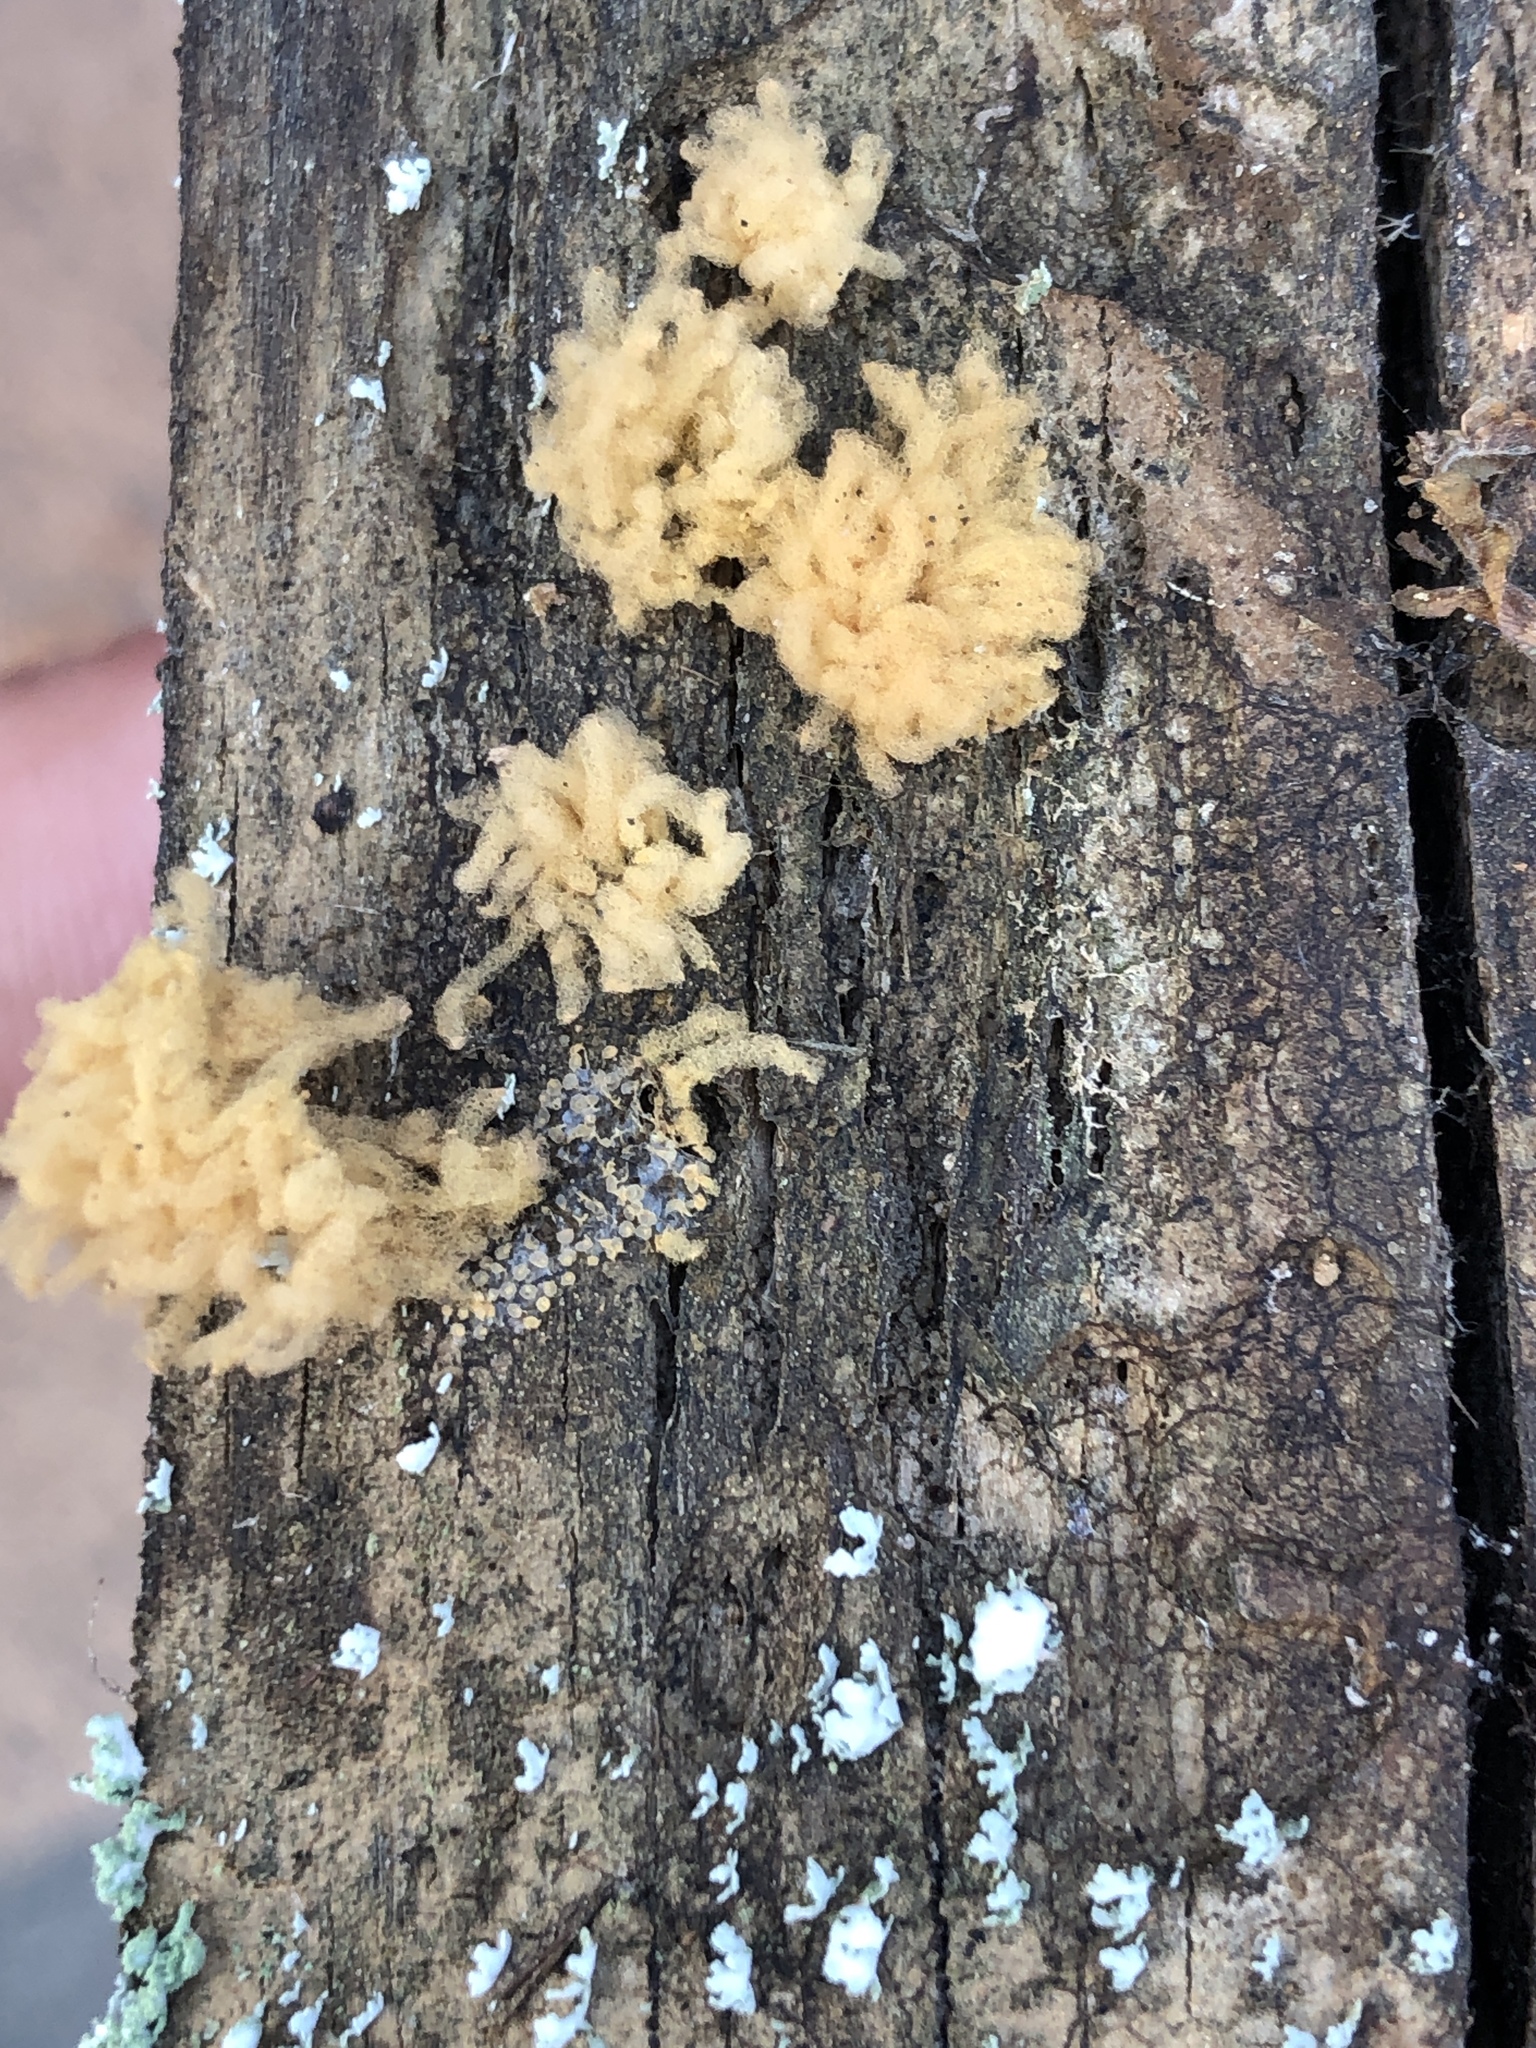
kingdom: Protozoa
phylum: Mycetozoa
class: Myxomycetes
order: Trichiales
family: Arcyriaceae
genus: Arcyria
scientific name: Arcyria obvelata
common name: Yellow carnival candy slime
